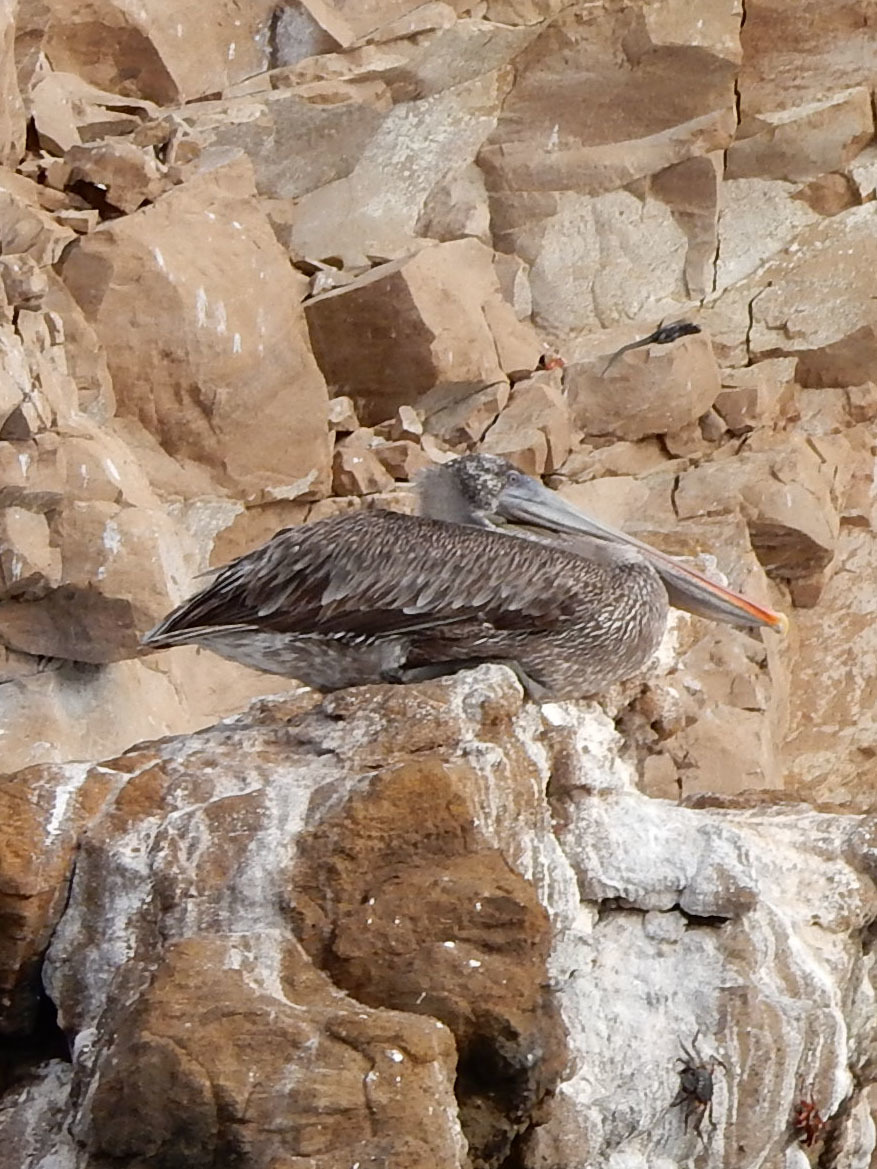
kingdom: Animalia
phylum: Chordata
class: Aves
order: Pelecaniformes
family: Pelecanidae
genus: Pelecanus
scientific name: Pelecanus occidentalis
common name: Brown pelican
